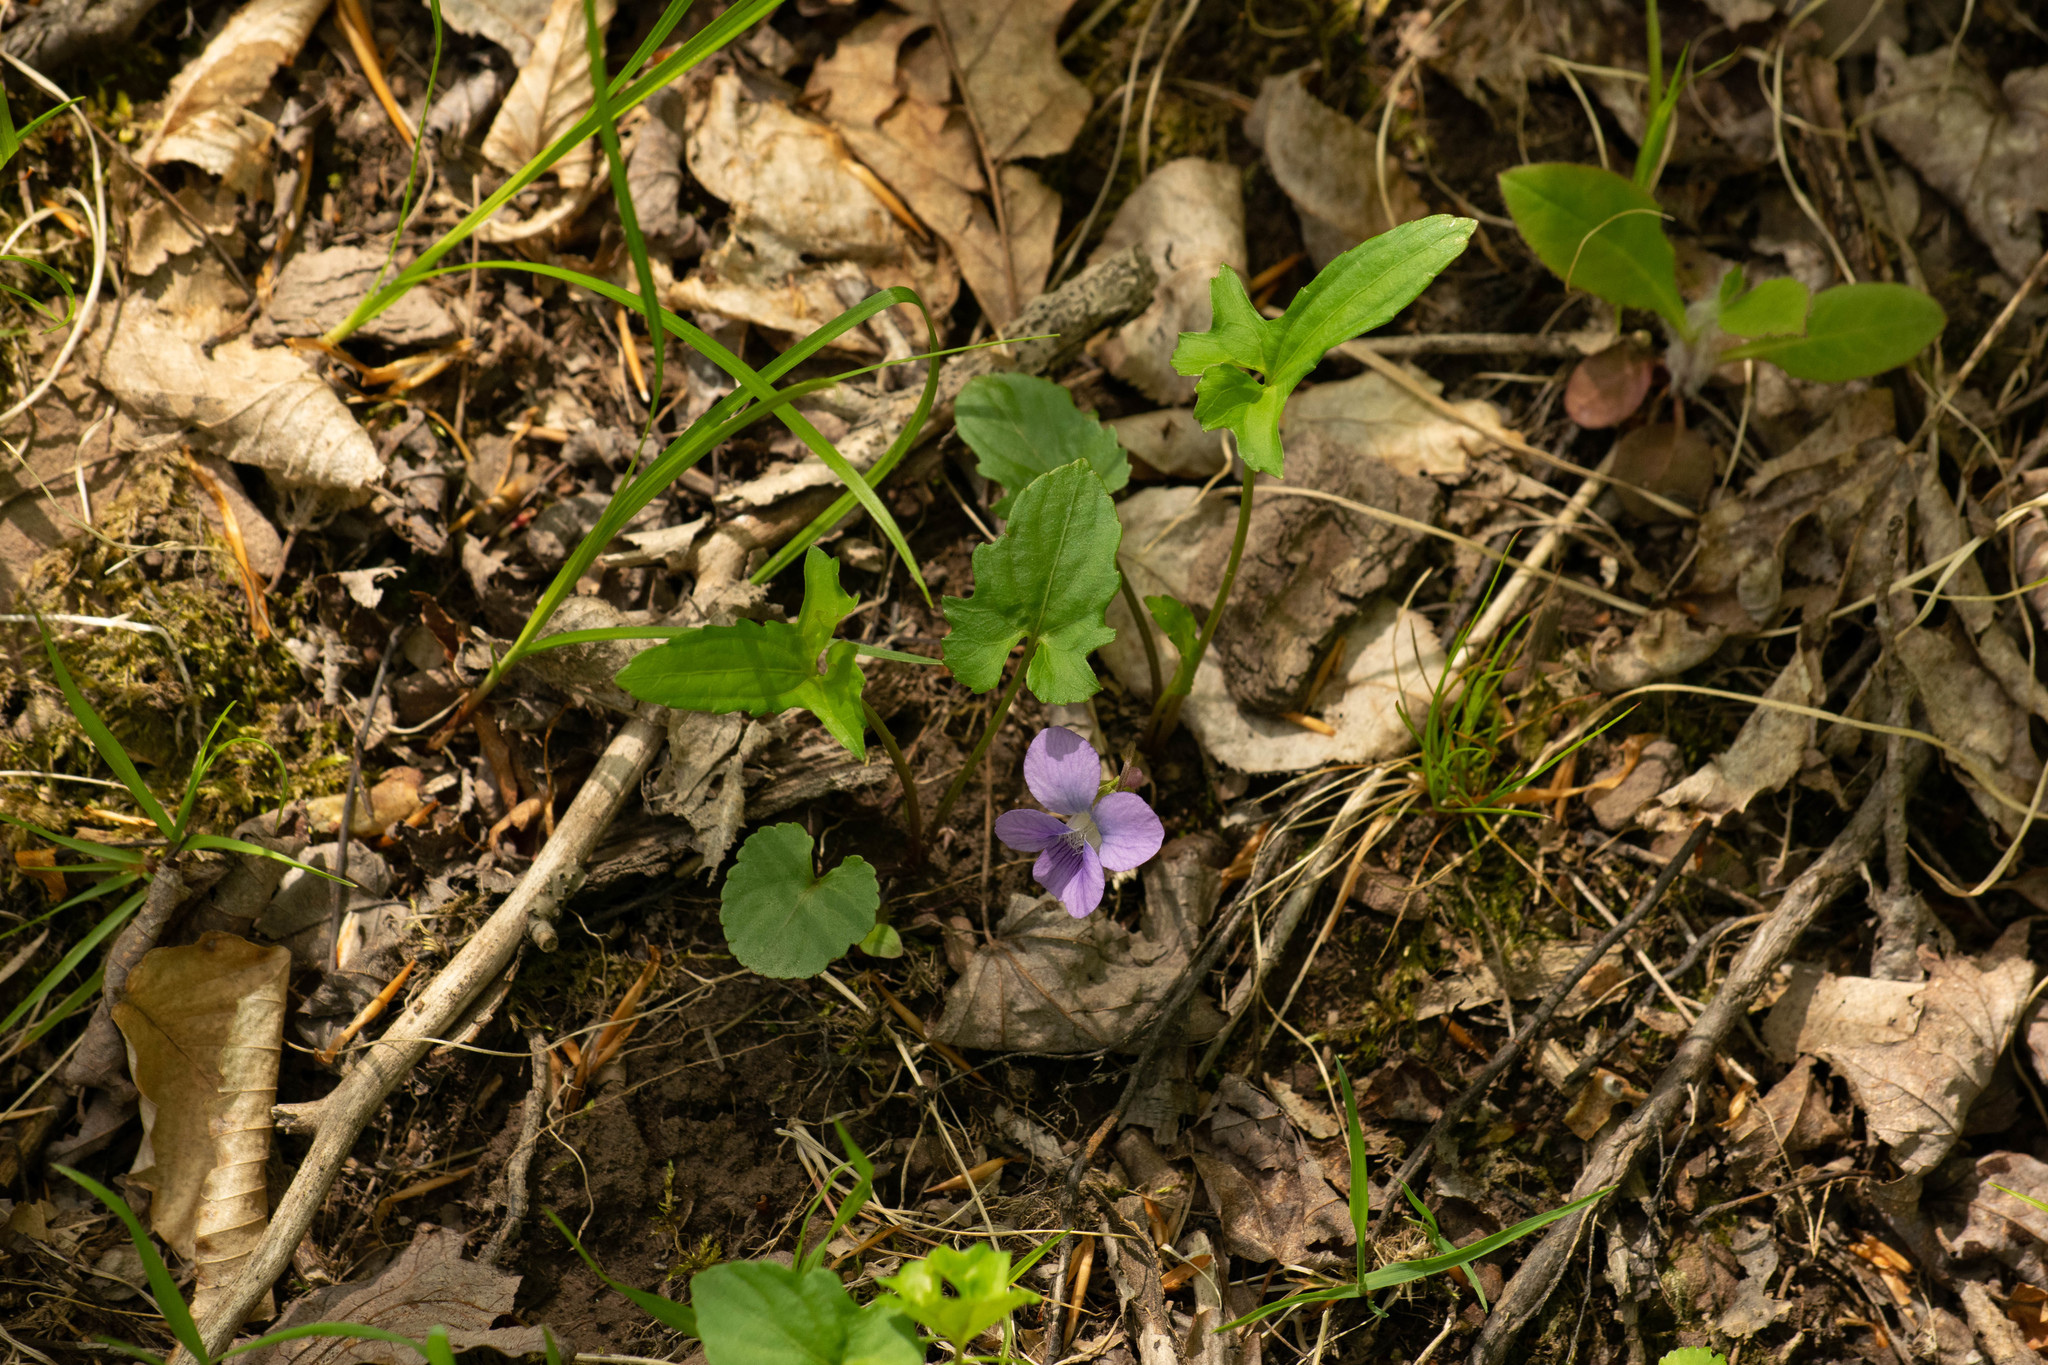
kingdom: Plantae
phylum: Tracheophyta
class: Magnoliopsida
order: Malpighiales
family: Violaceae
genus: Viola
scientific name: Viola palmata
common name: Early blue violet
